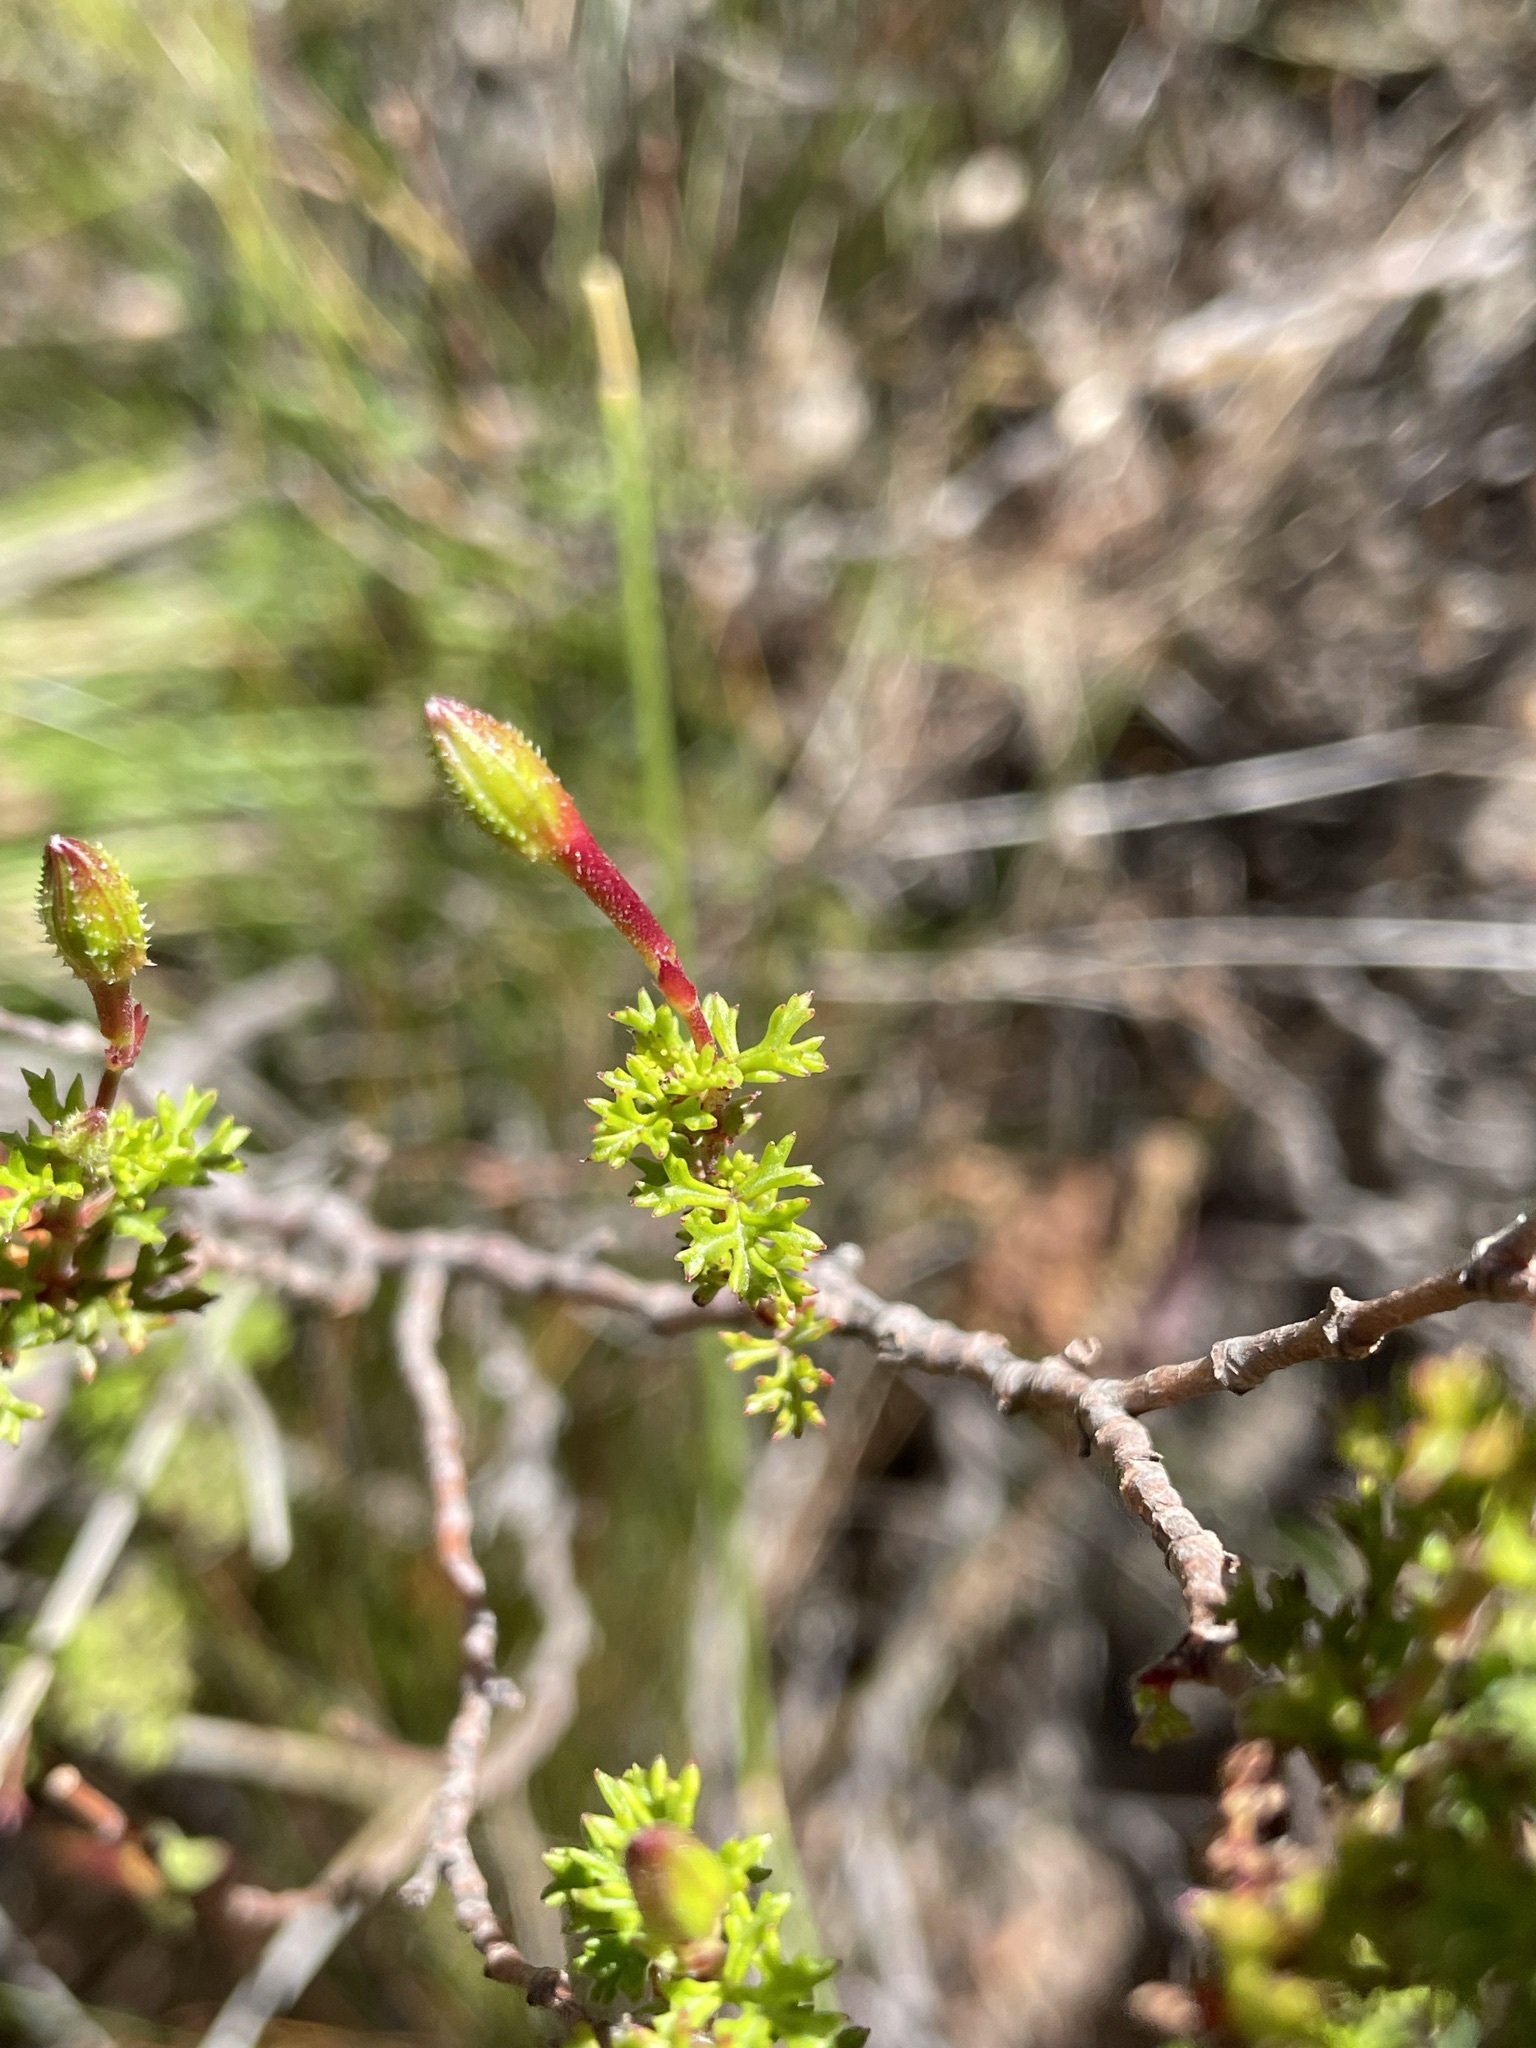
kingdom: Plantae
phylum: Tracheophyta
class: Magnoliopsida
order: Geraniales
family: Geraniaceae
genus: Pelargonium
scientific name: Pelargonium fruticosum
